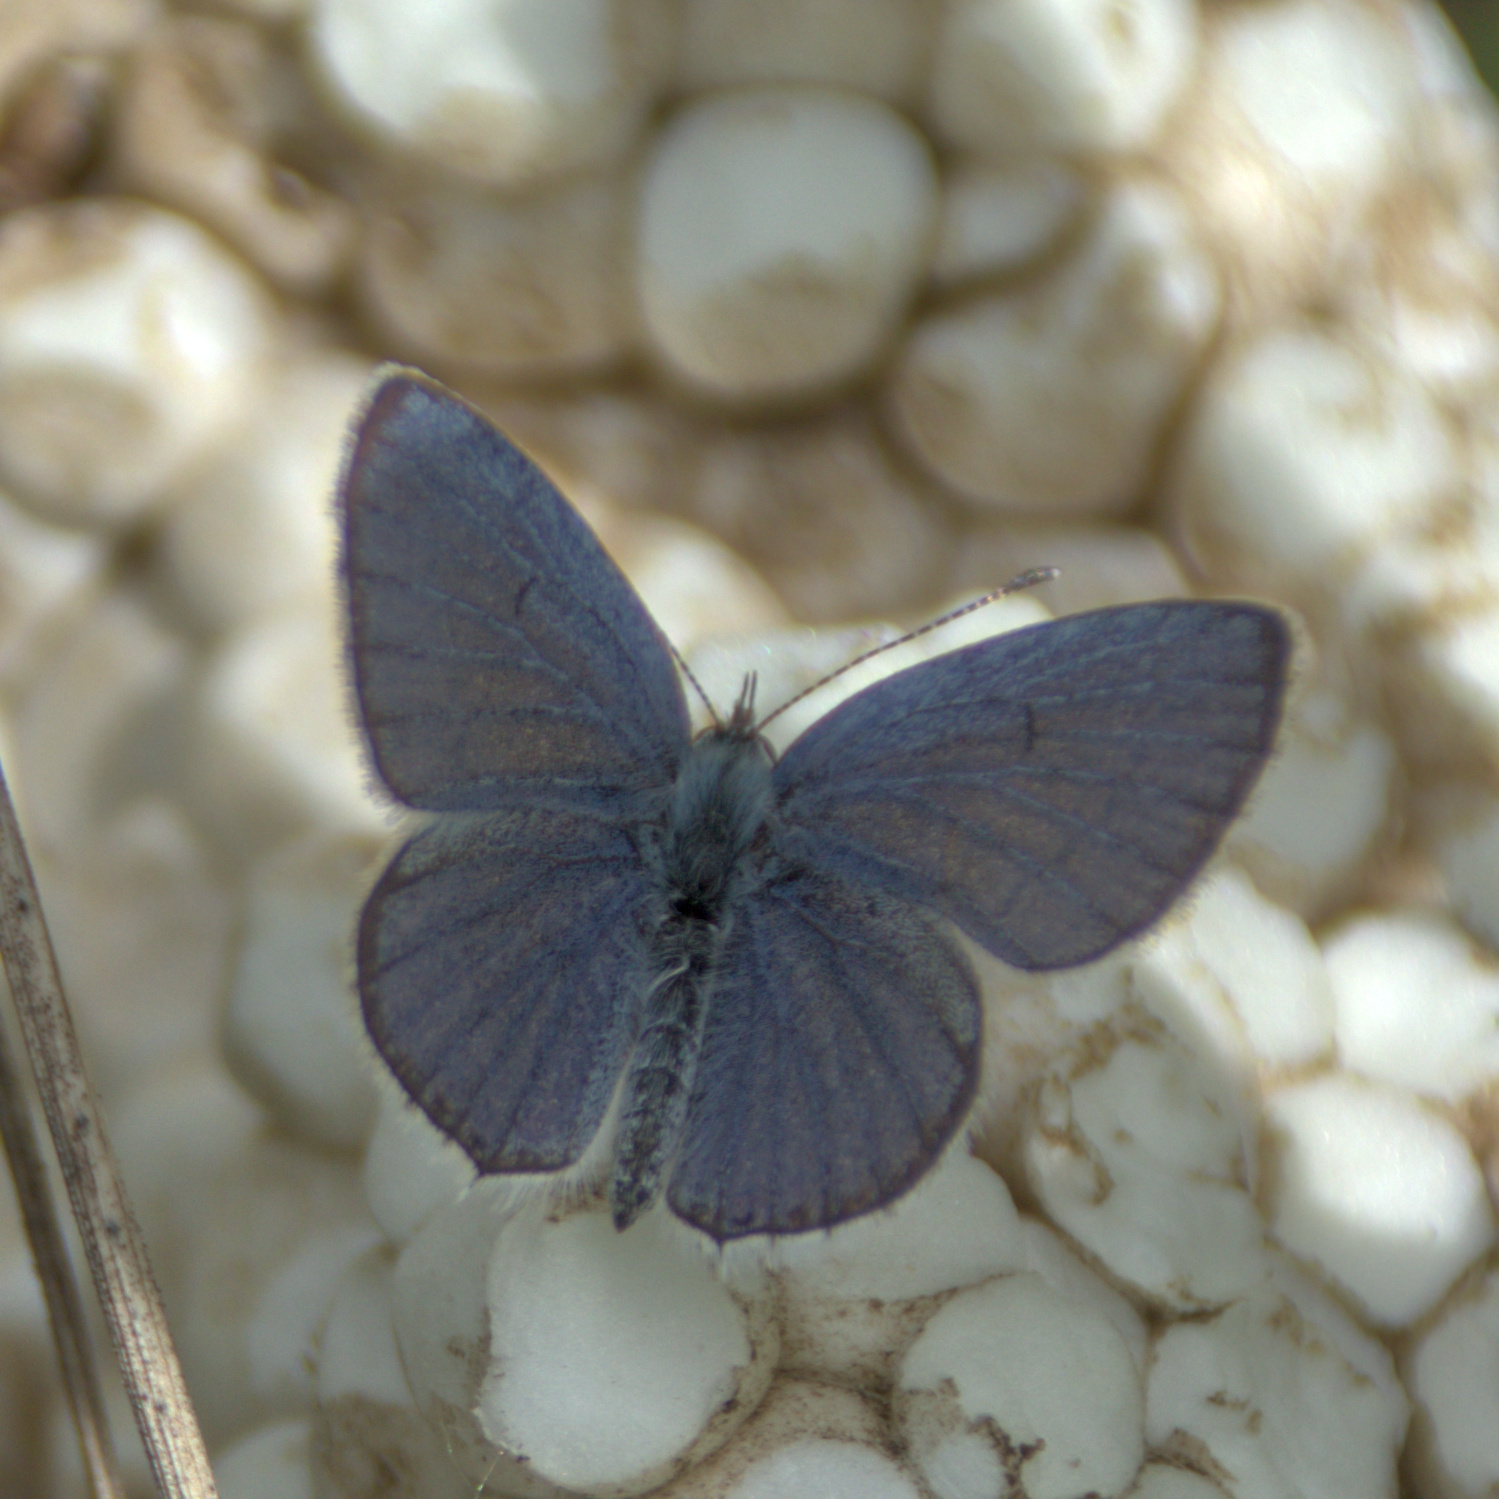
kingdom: Animalia
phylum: Arthropoda
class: Insecta
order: Lepidoptera
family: Lycaenidae
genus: Elkalyce
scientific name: Elkalyce argiades
